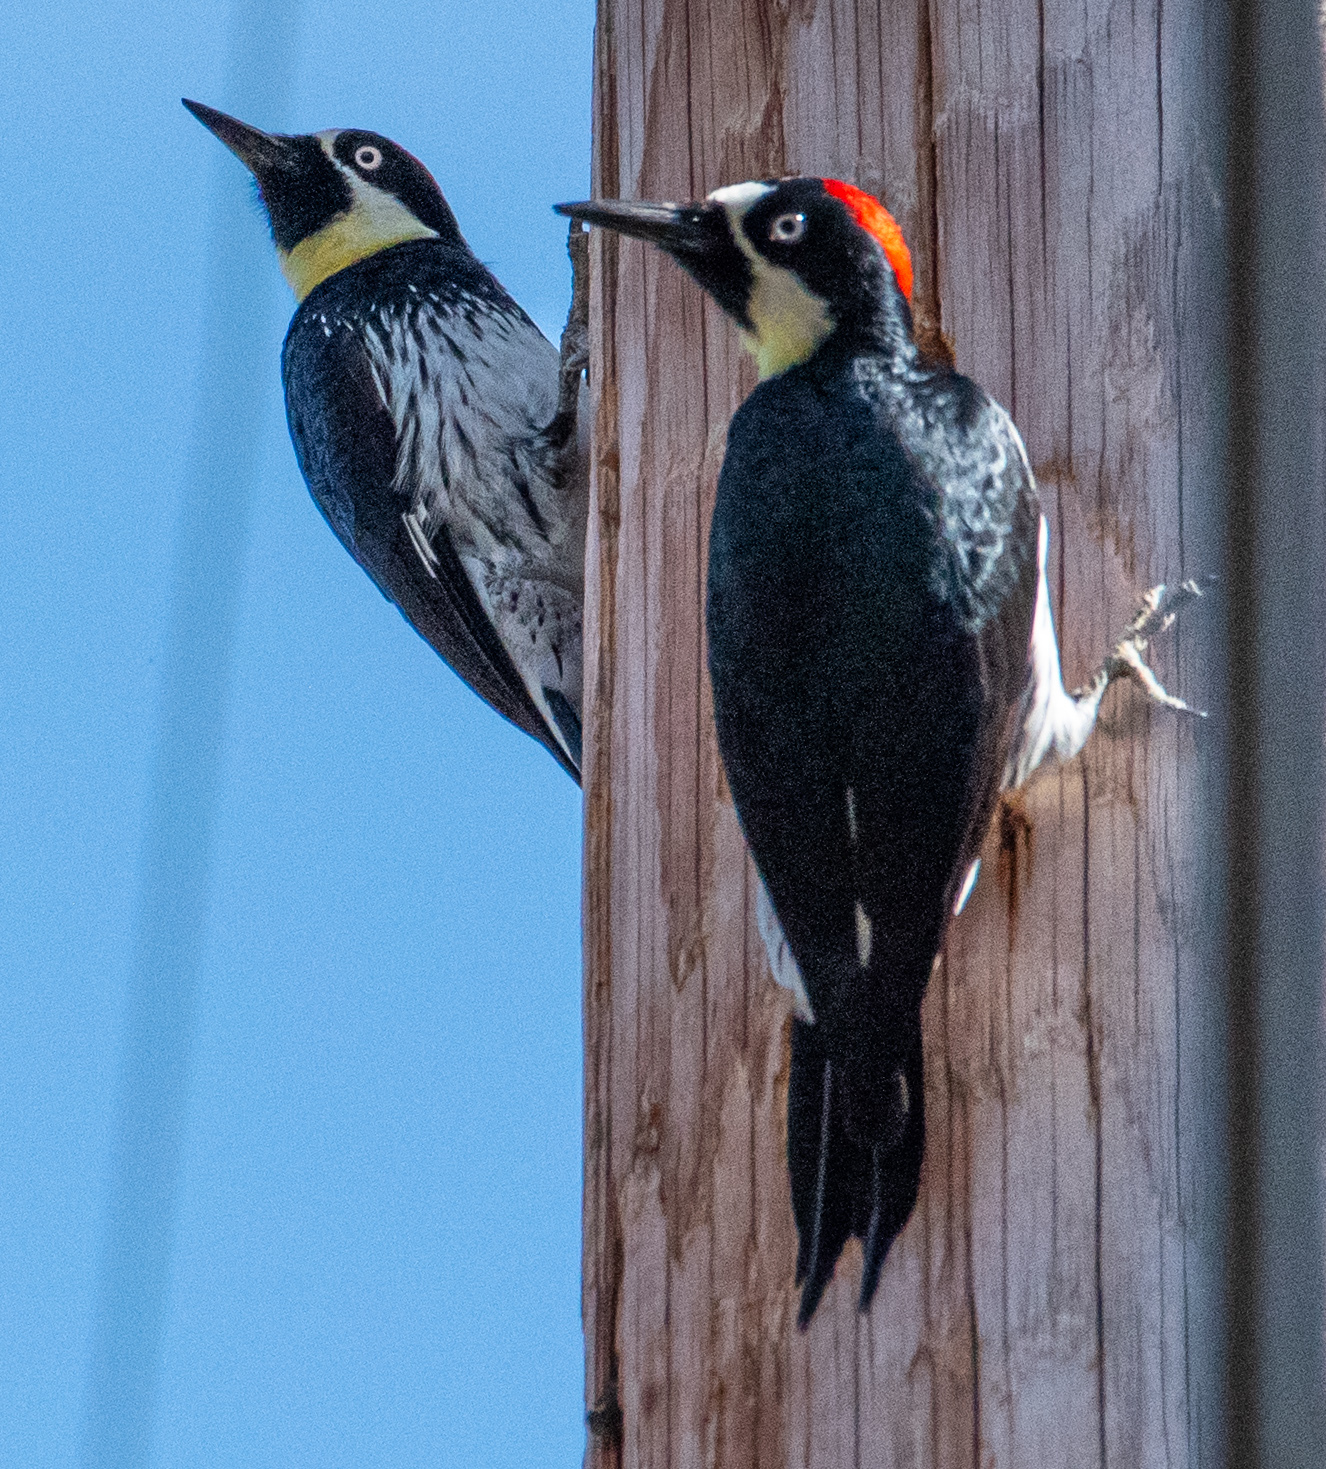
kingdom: Animalia
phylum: Chordata
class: Aves
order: Piciformes
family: Picidae
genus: Melanerpes
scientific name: Melanerpes formicivorus
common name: Acorn woodpecker
